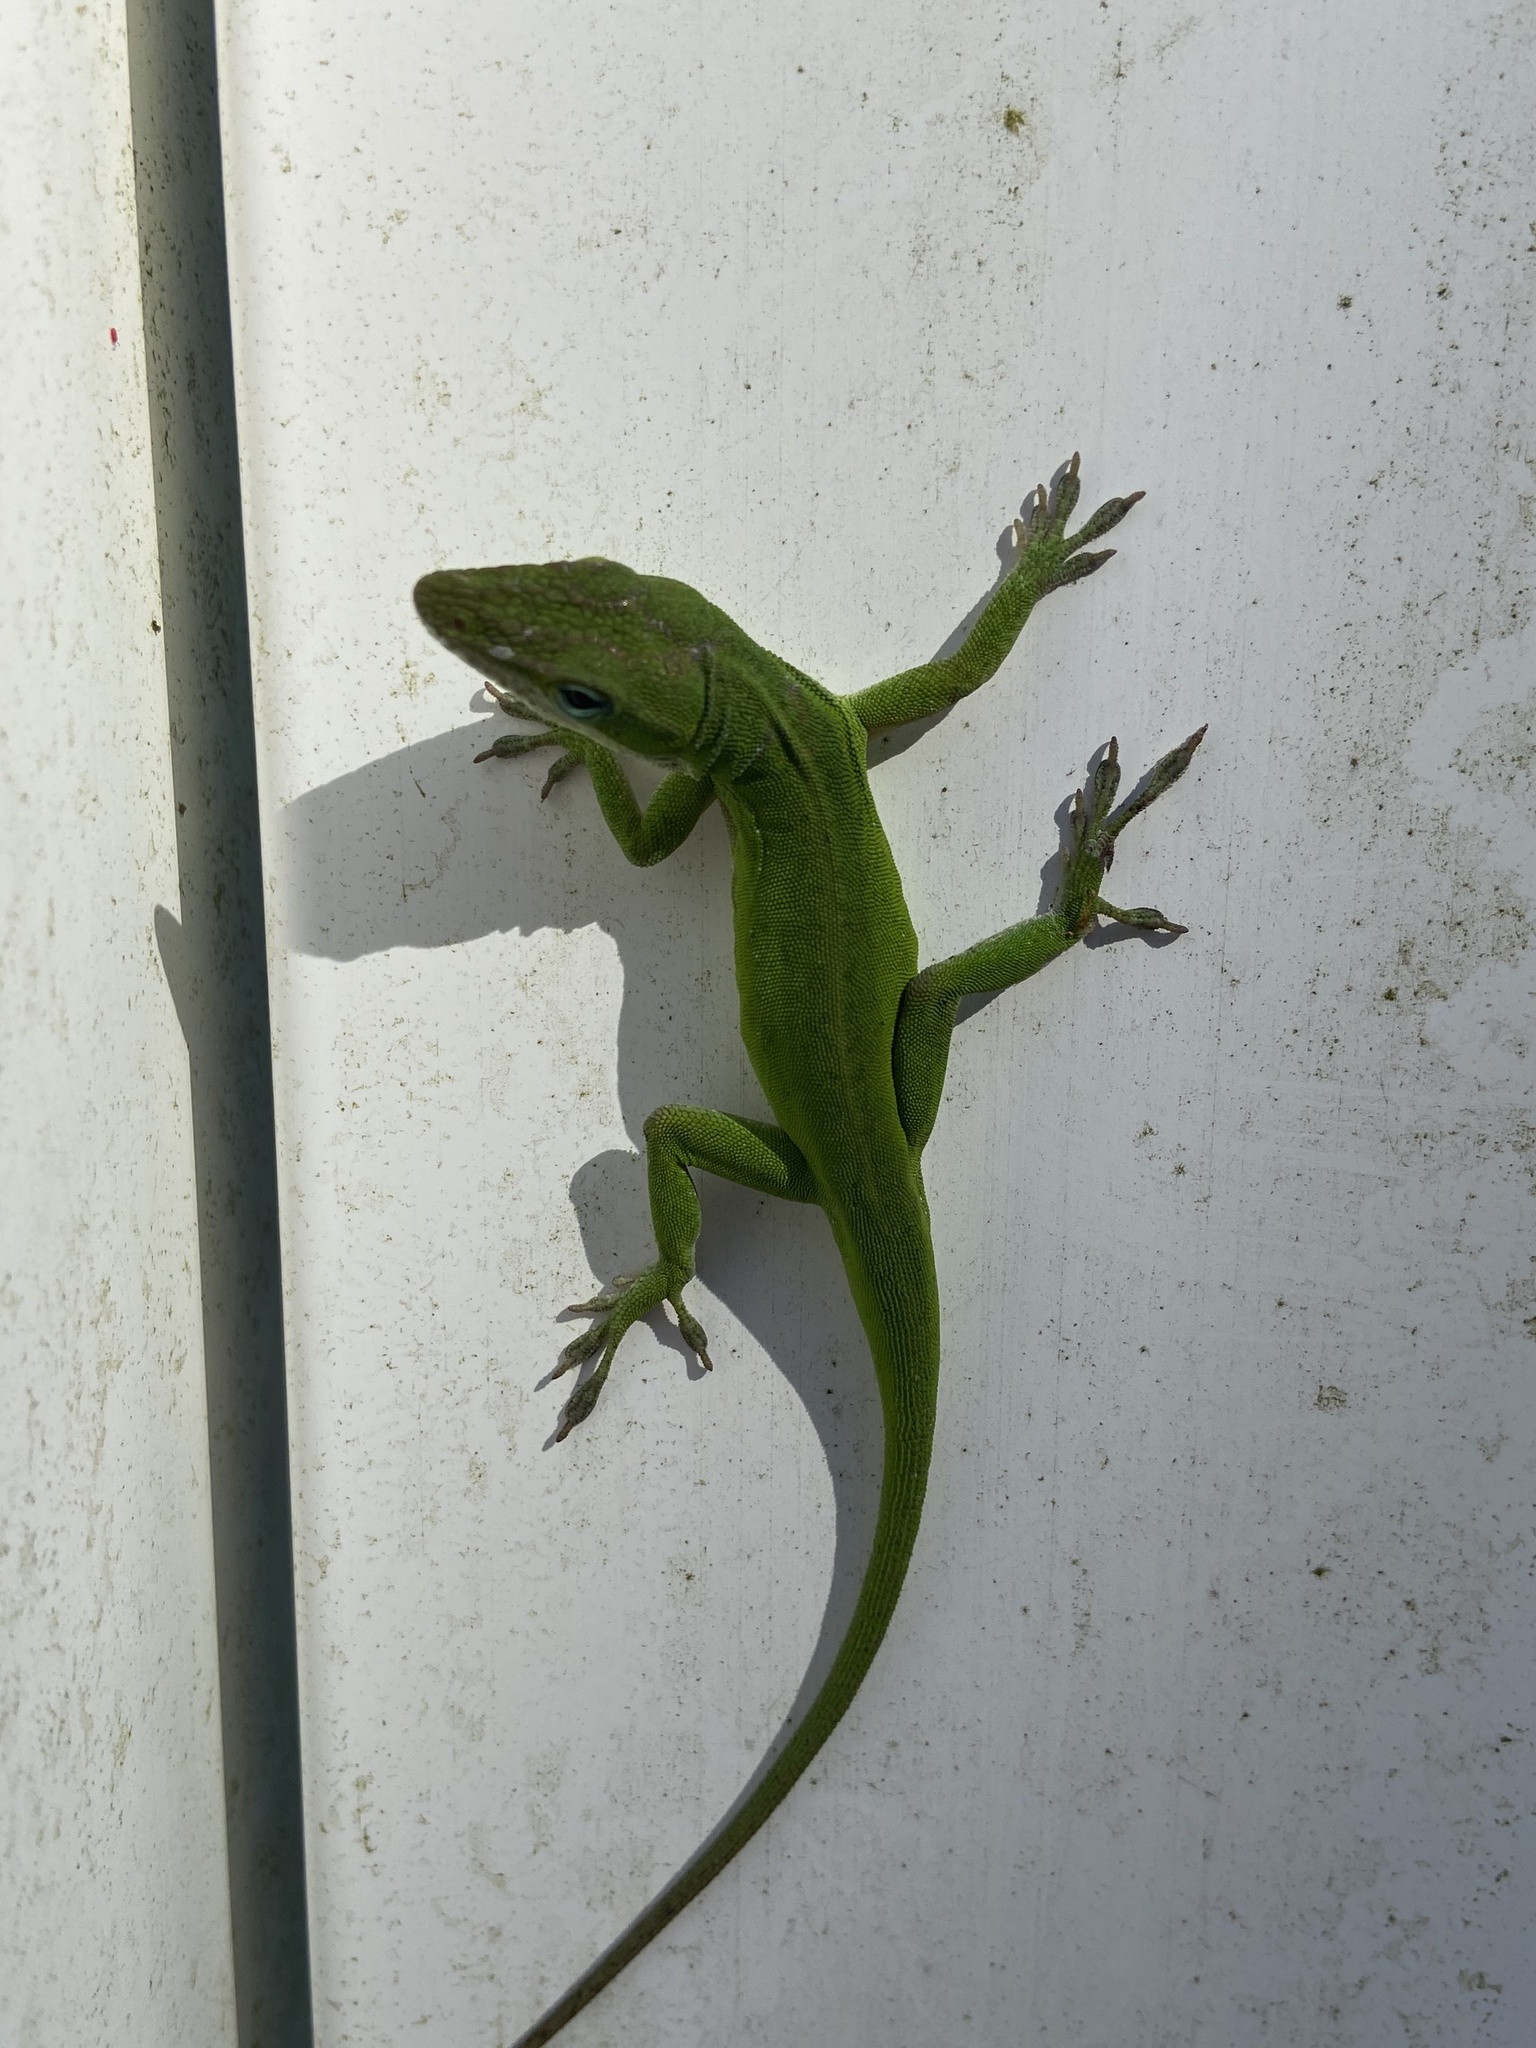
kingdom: Animalia
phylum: Chordata
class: Squamata
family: Dactyloidae
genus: Anolis
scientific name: Anolis carolinensis
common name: Green anole
